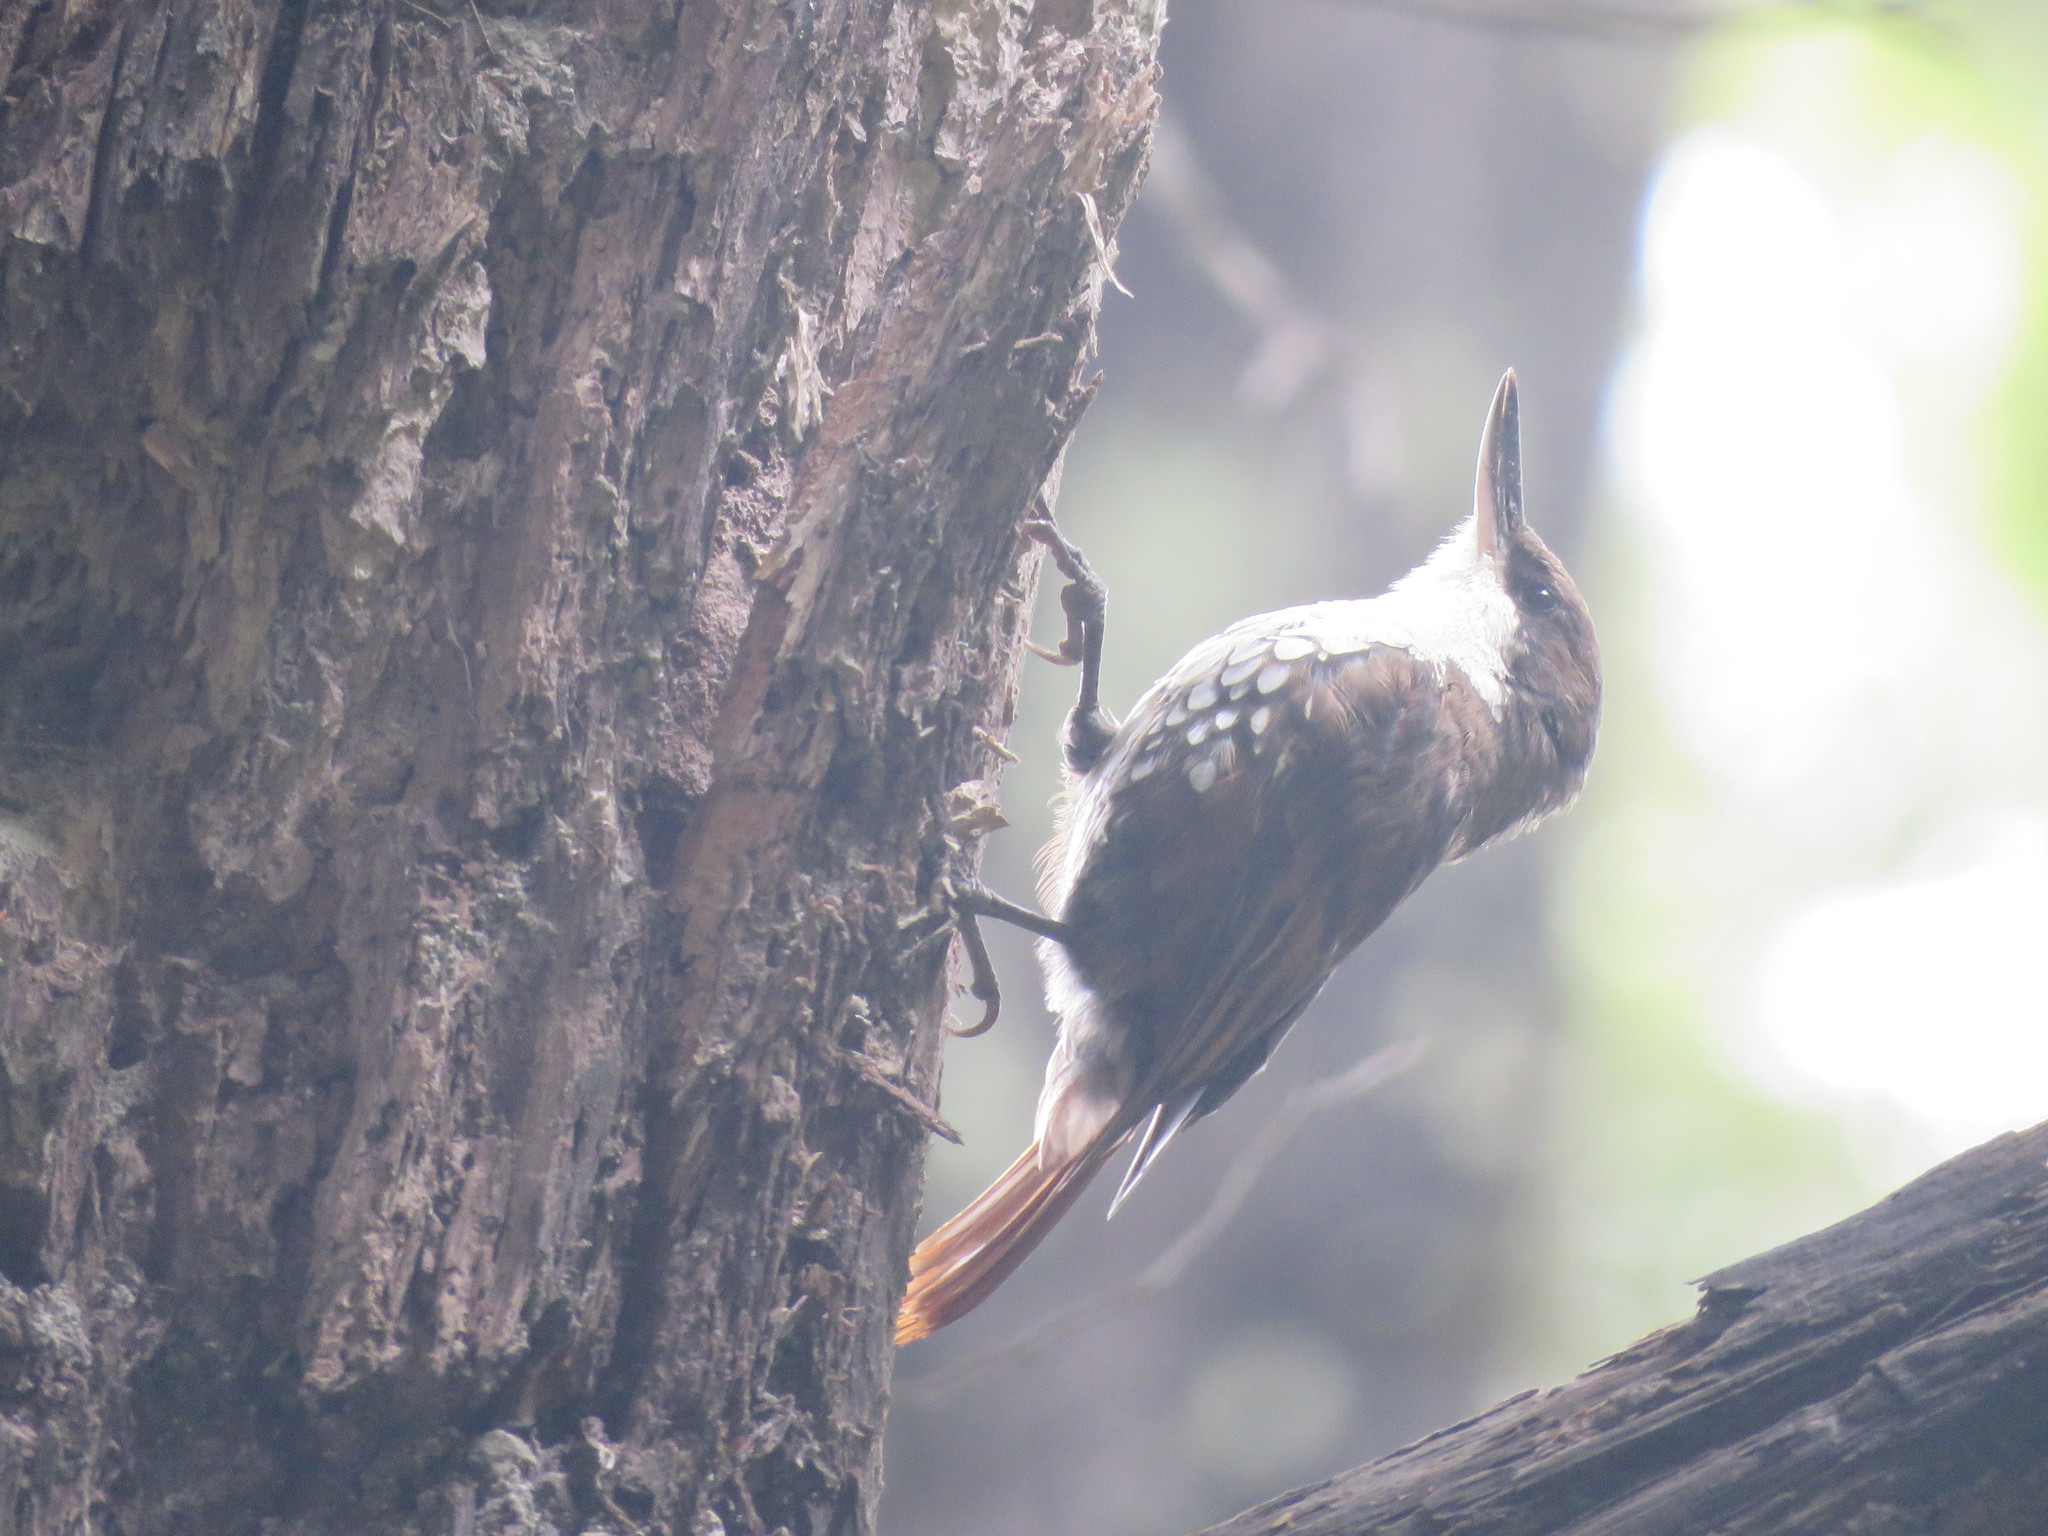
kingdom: Animalia
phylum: Chordata
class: Aves
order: Passeriformes
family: Furnariidae
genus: Pygarrhichas
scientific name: Pygarrhichas albogularis
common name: White-throated treerunner
